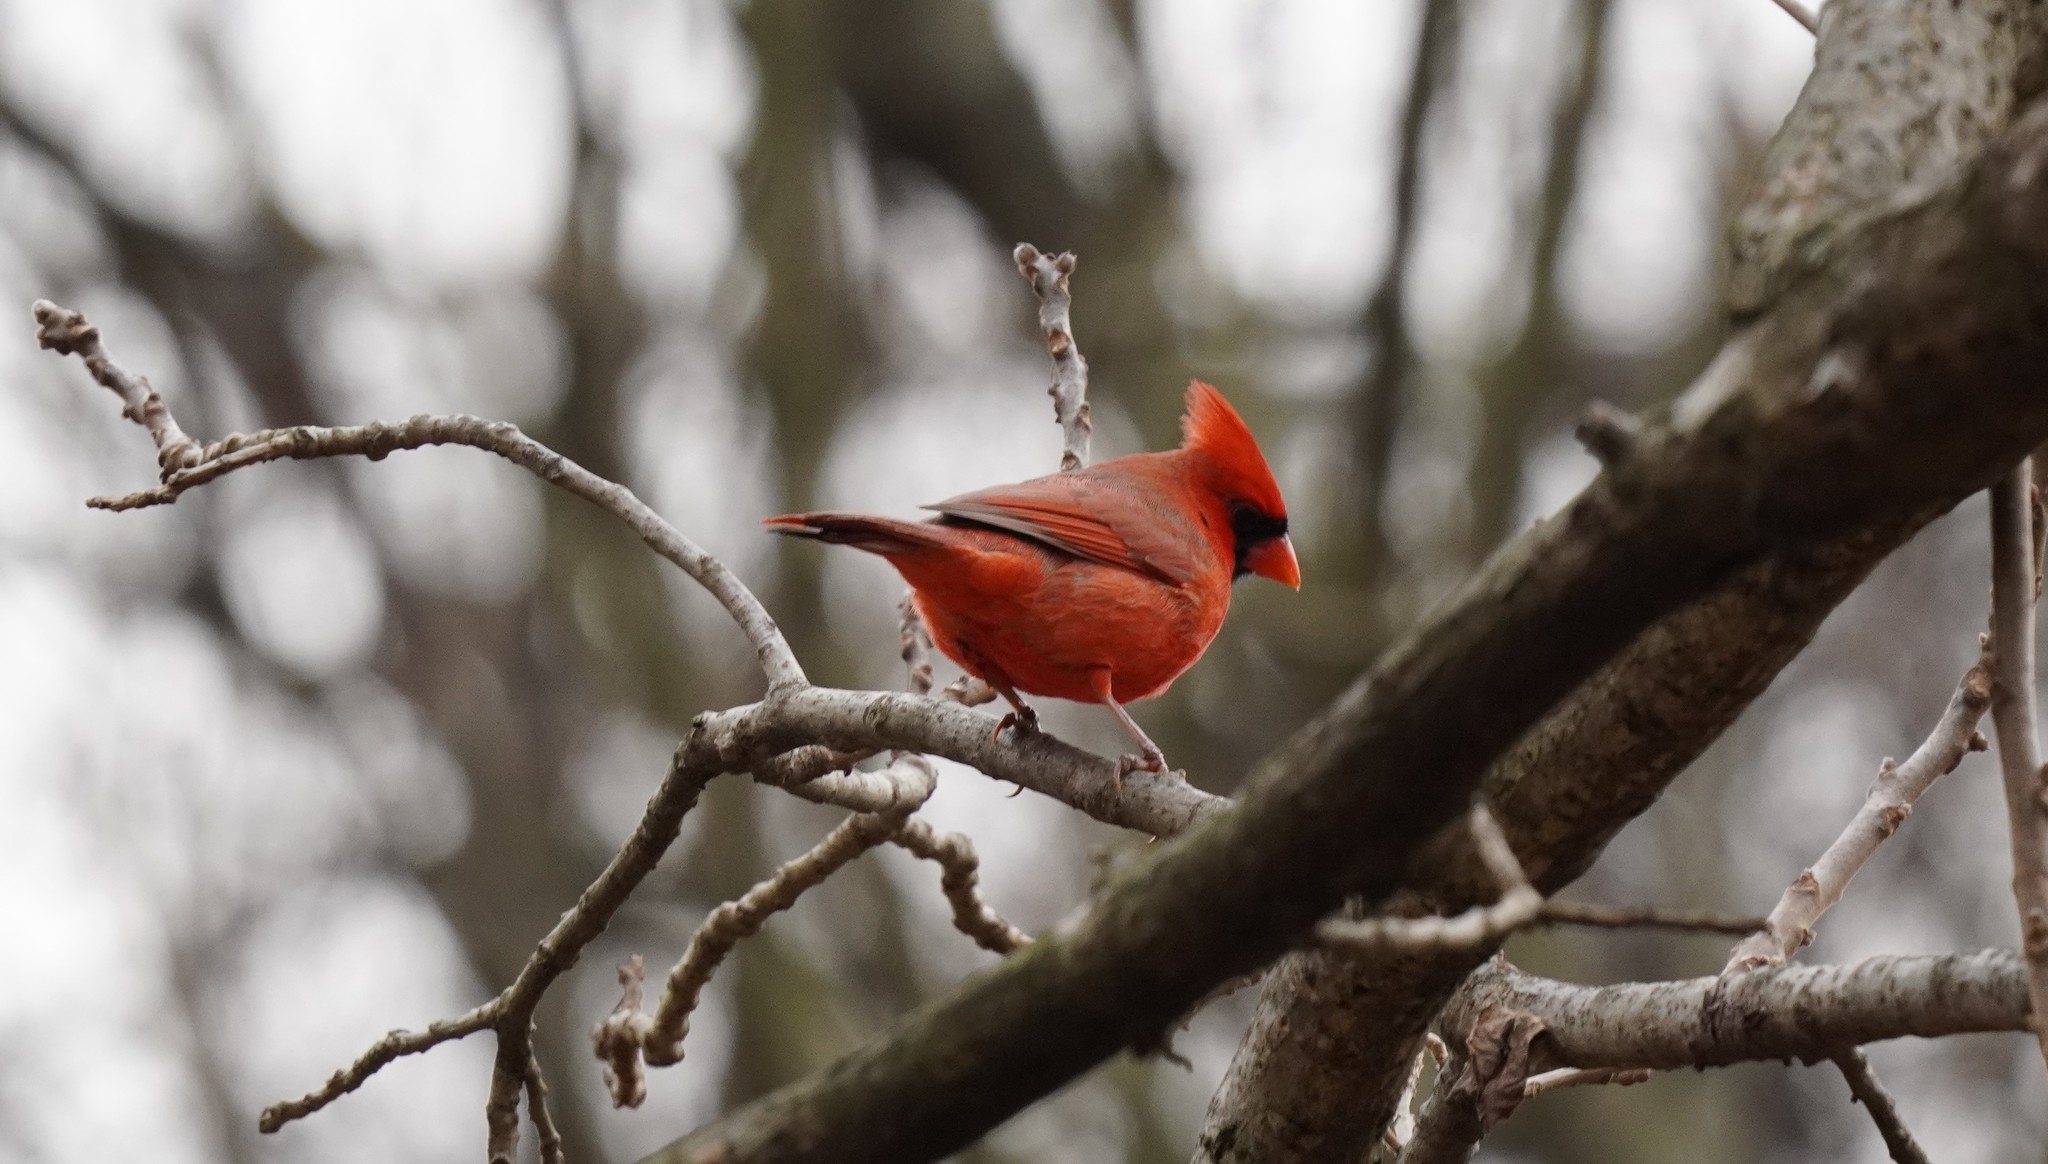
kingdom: Animalia
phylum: Chordata
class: Aves
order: Passeriformes
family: Cardinalidae
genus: Cardinalis
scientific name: Cardinalis cardinalis
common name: Northern cardinal
